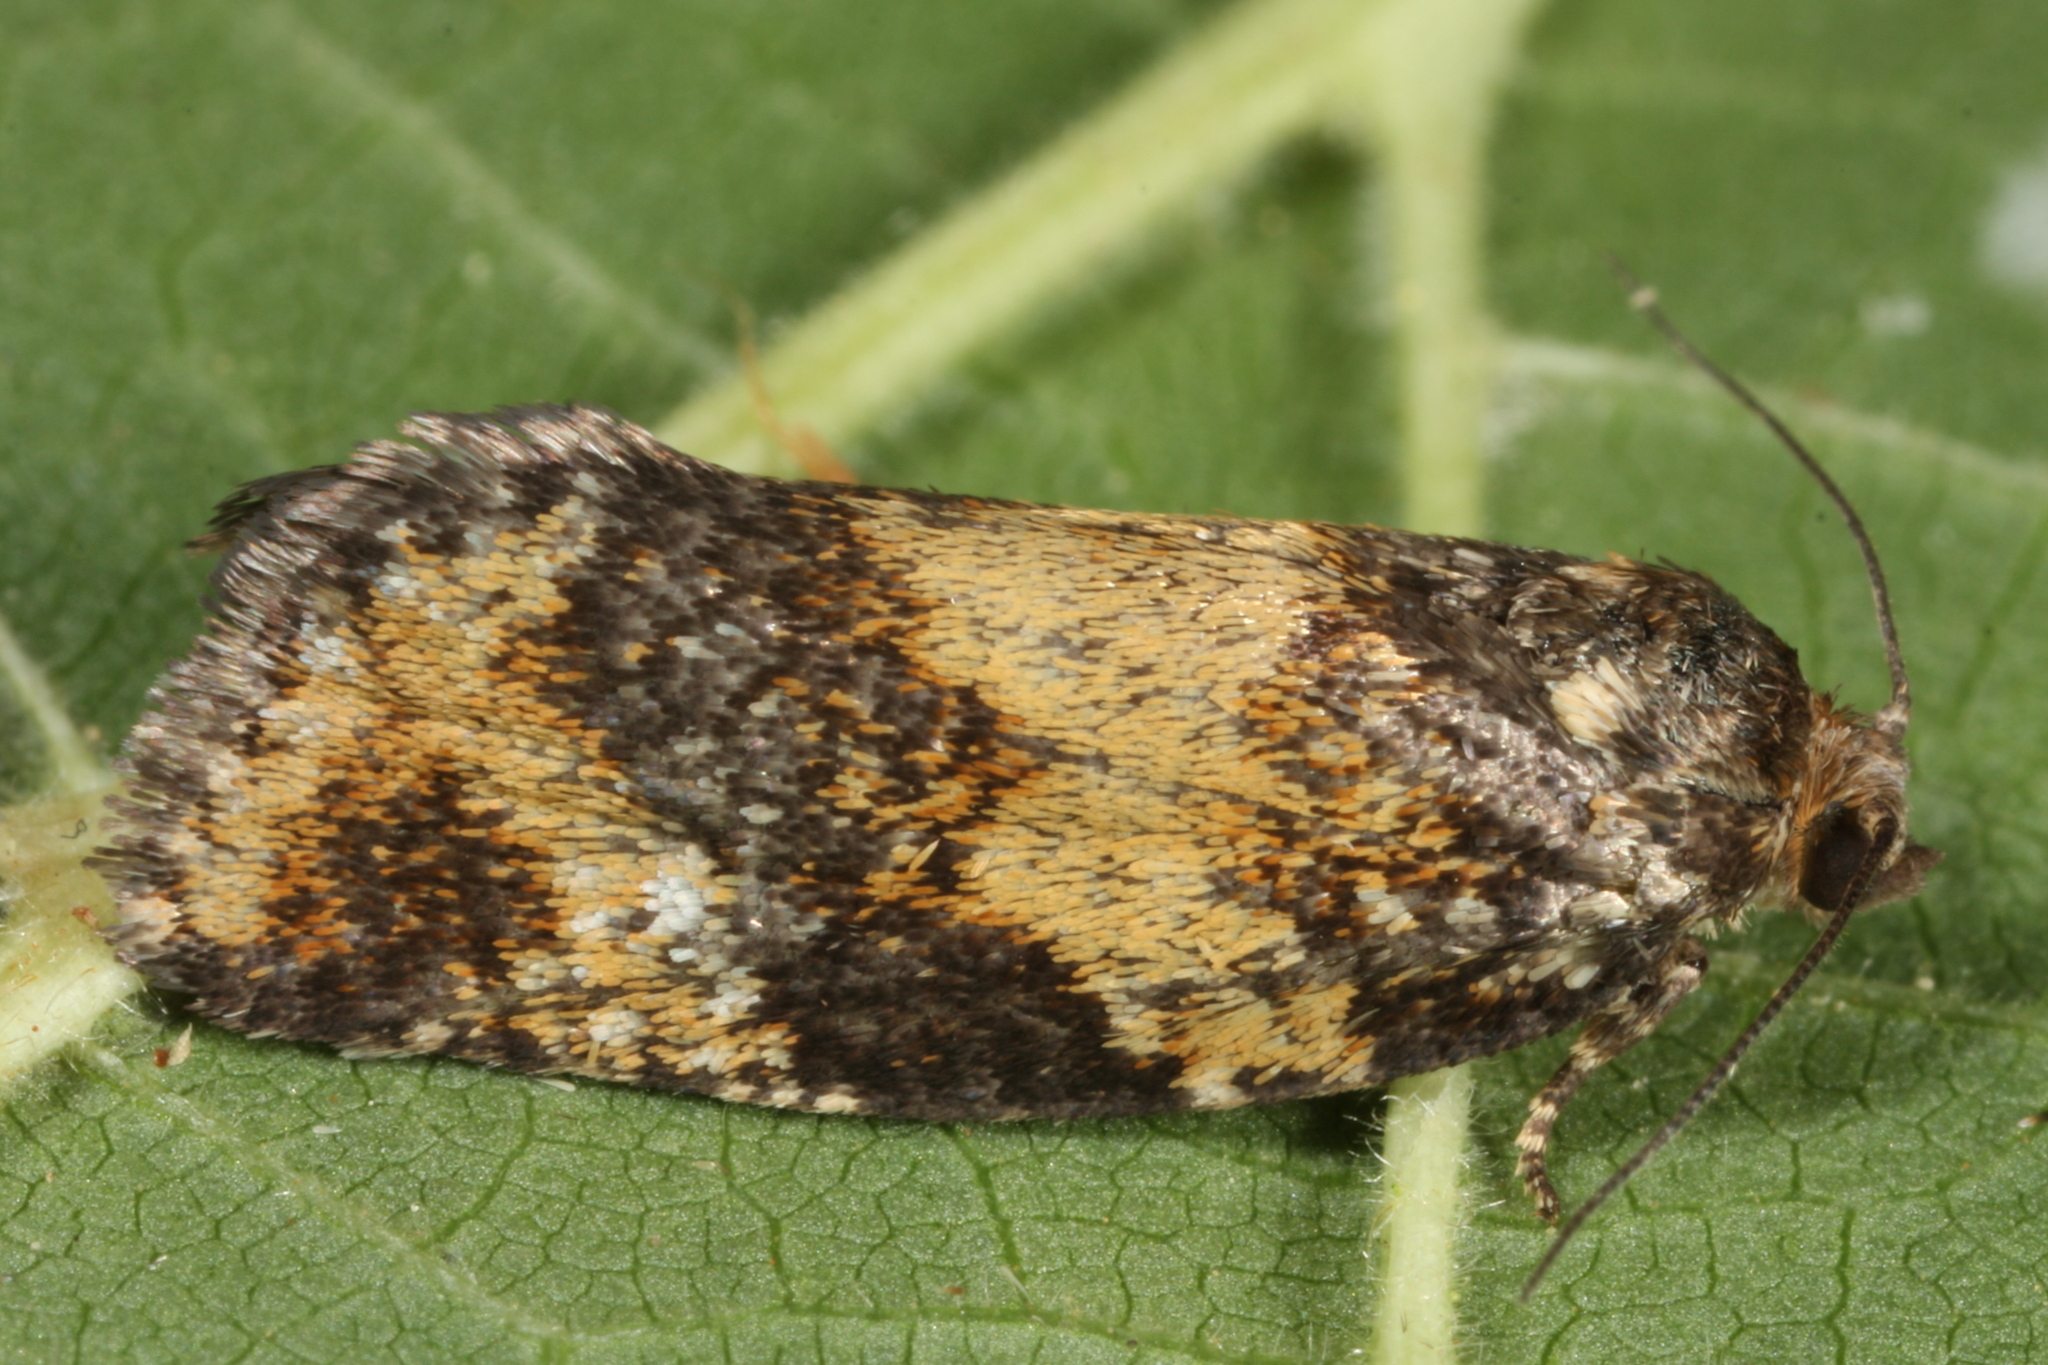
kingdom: Animalia
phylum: Arthropoda
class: Insecta
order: Lepidoptera
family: Tortricidae
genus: Ptycholomoides
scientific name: Ptycholomoides aeriferana
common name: Yellow larch tortrix
